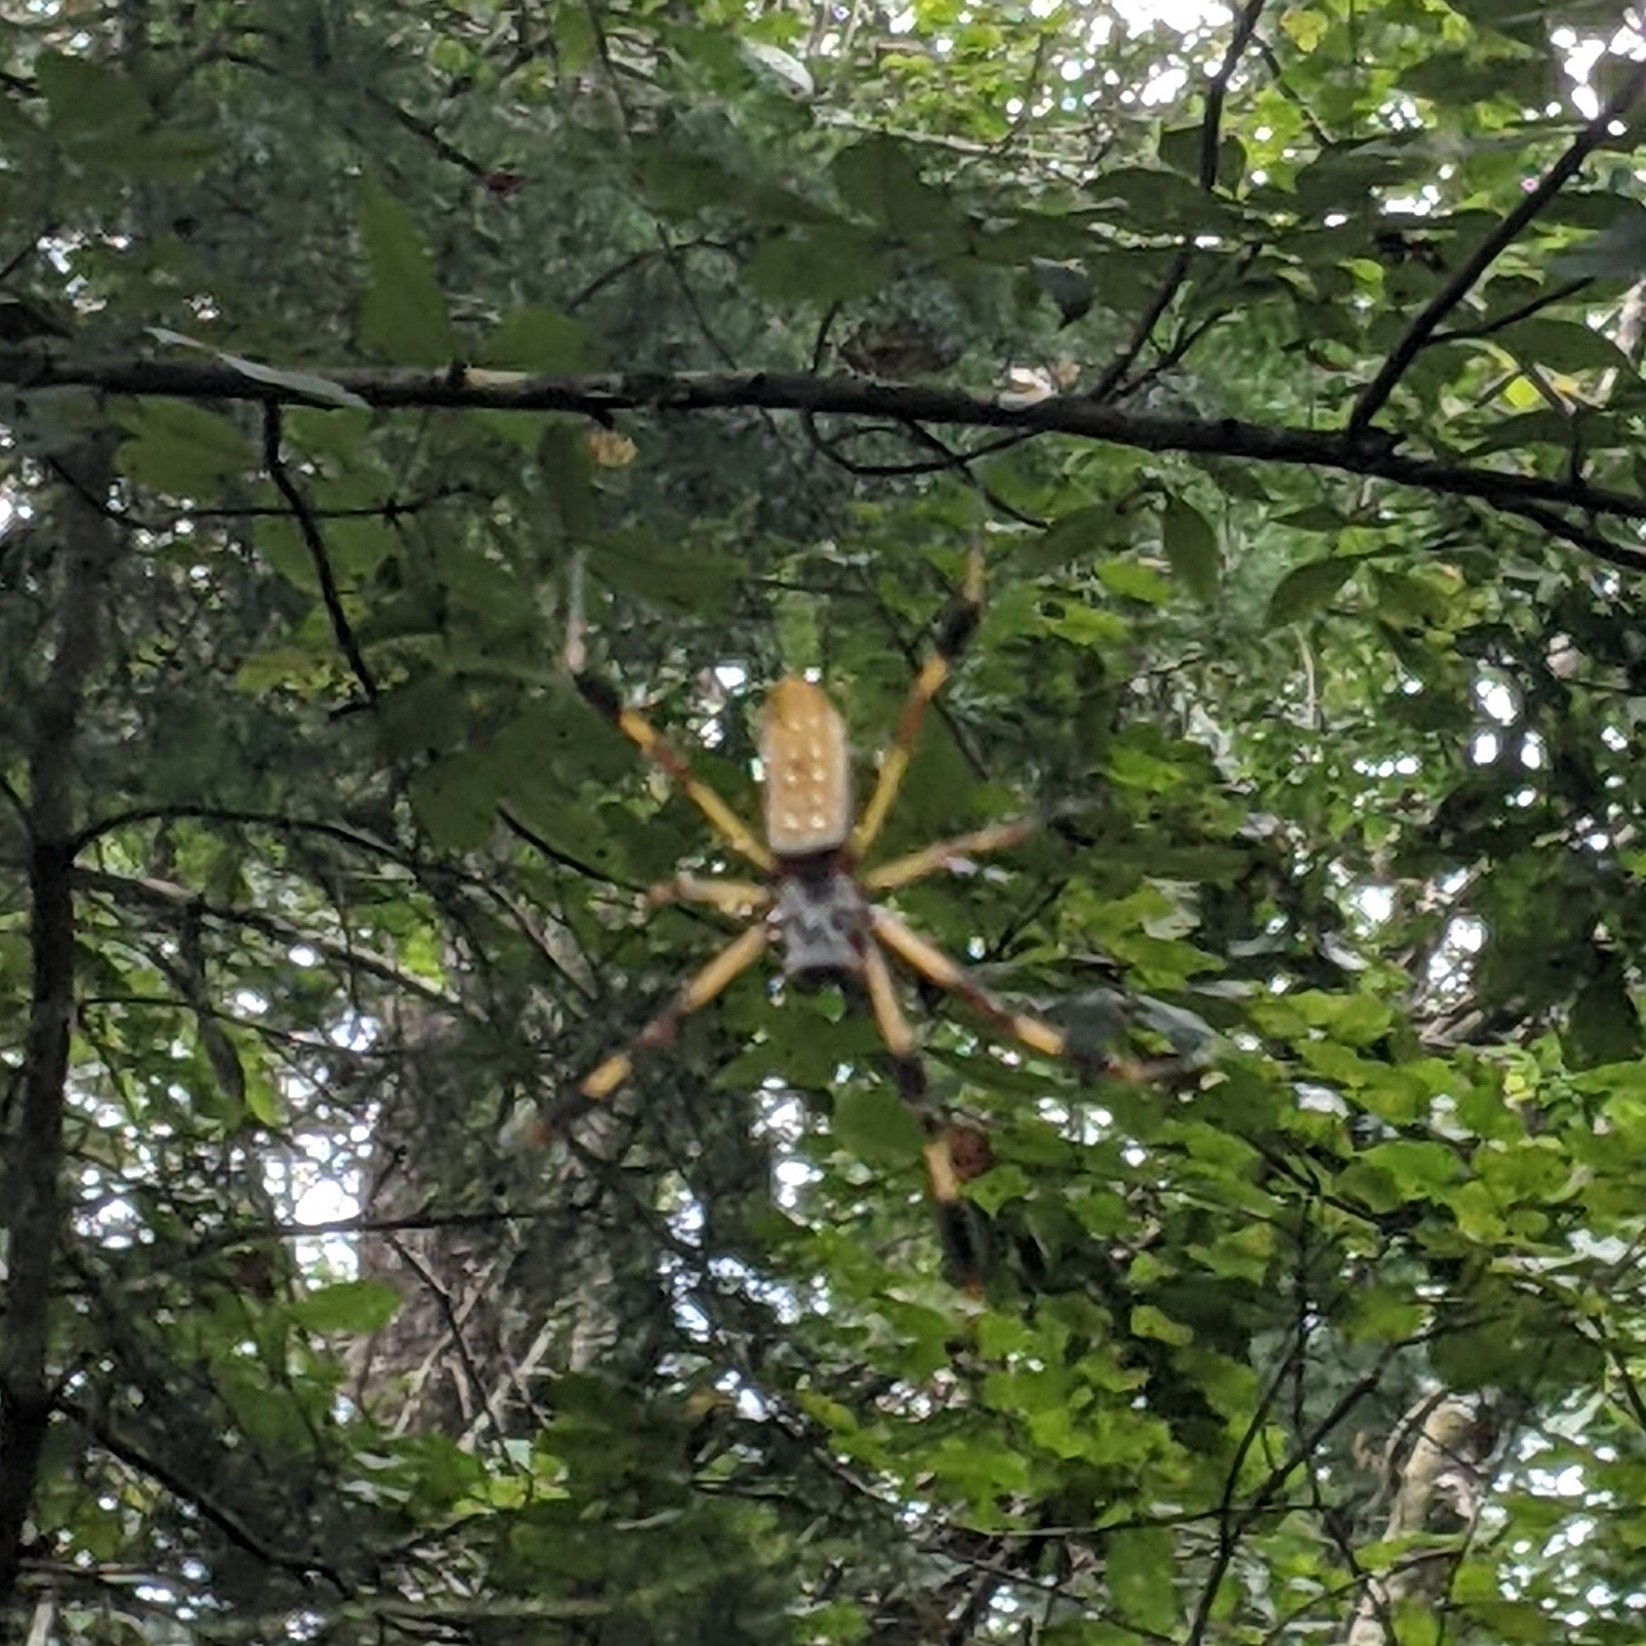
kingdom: Animalia
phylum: Arthropoda
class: Arachnida
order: Araneae
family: Araneidae
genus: Trichonephila
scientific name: Trichonephila clavipes
